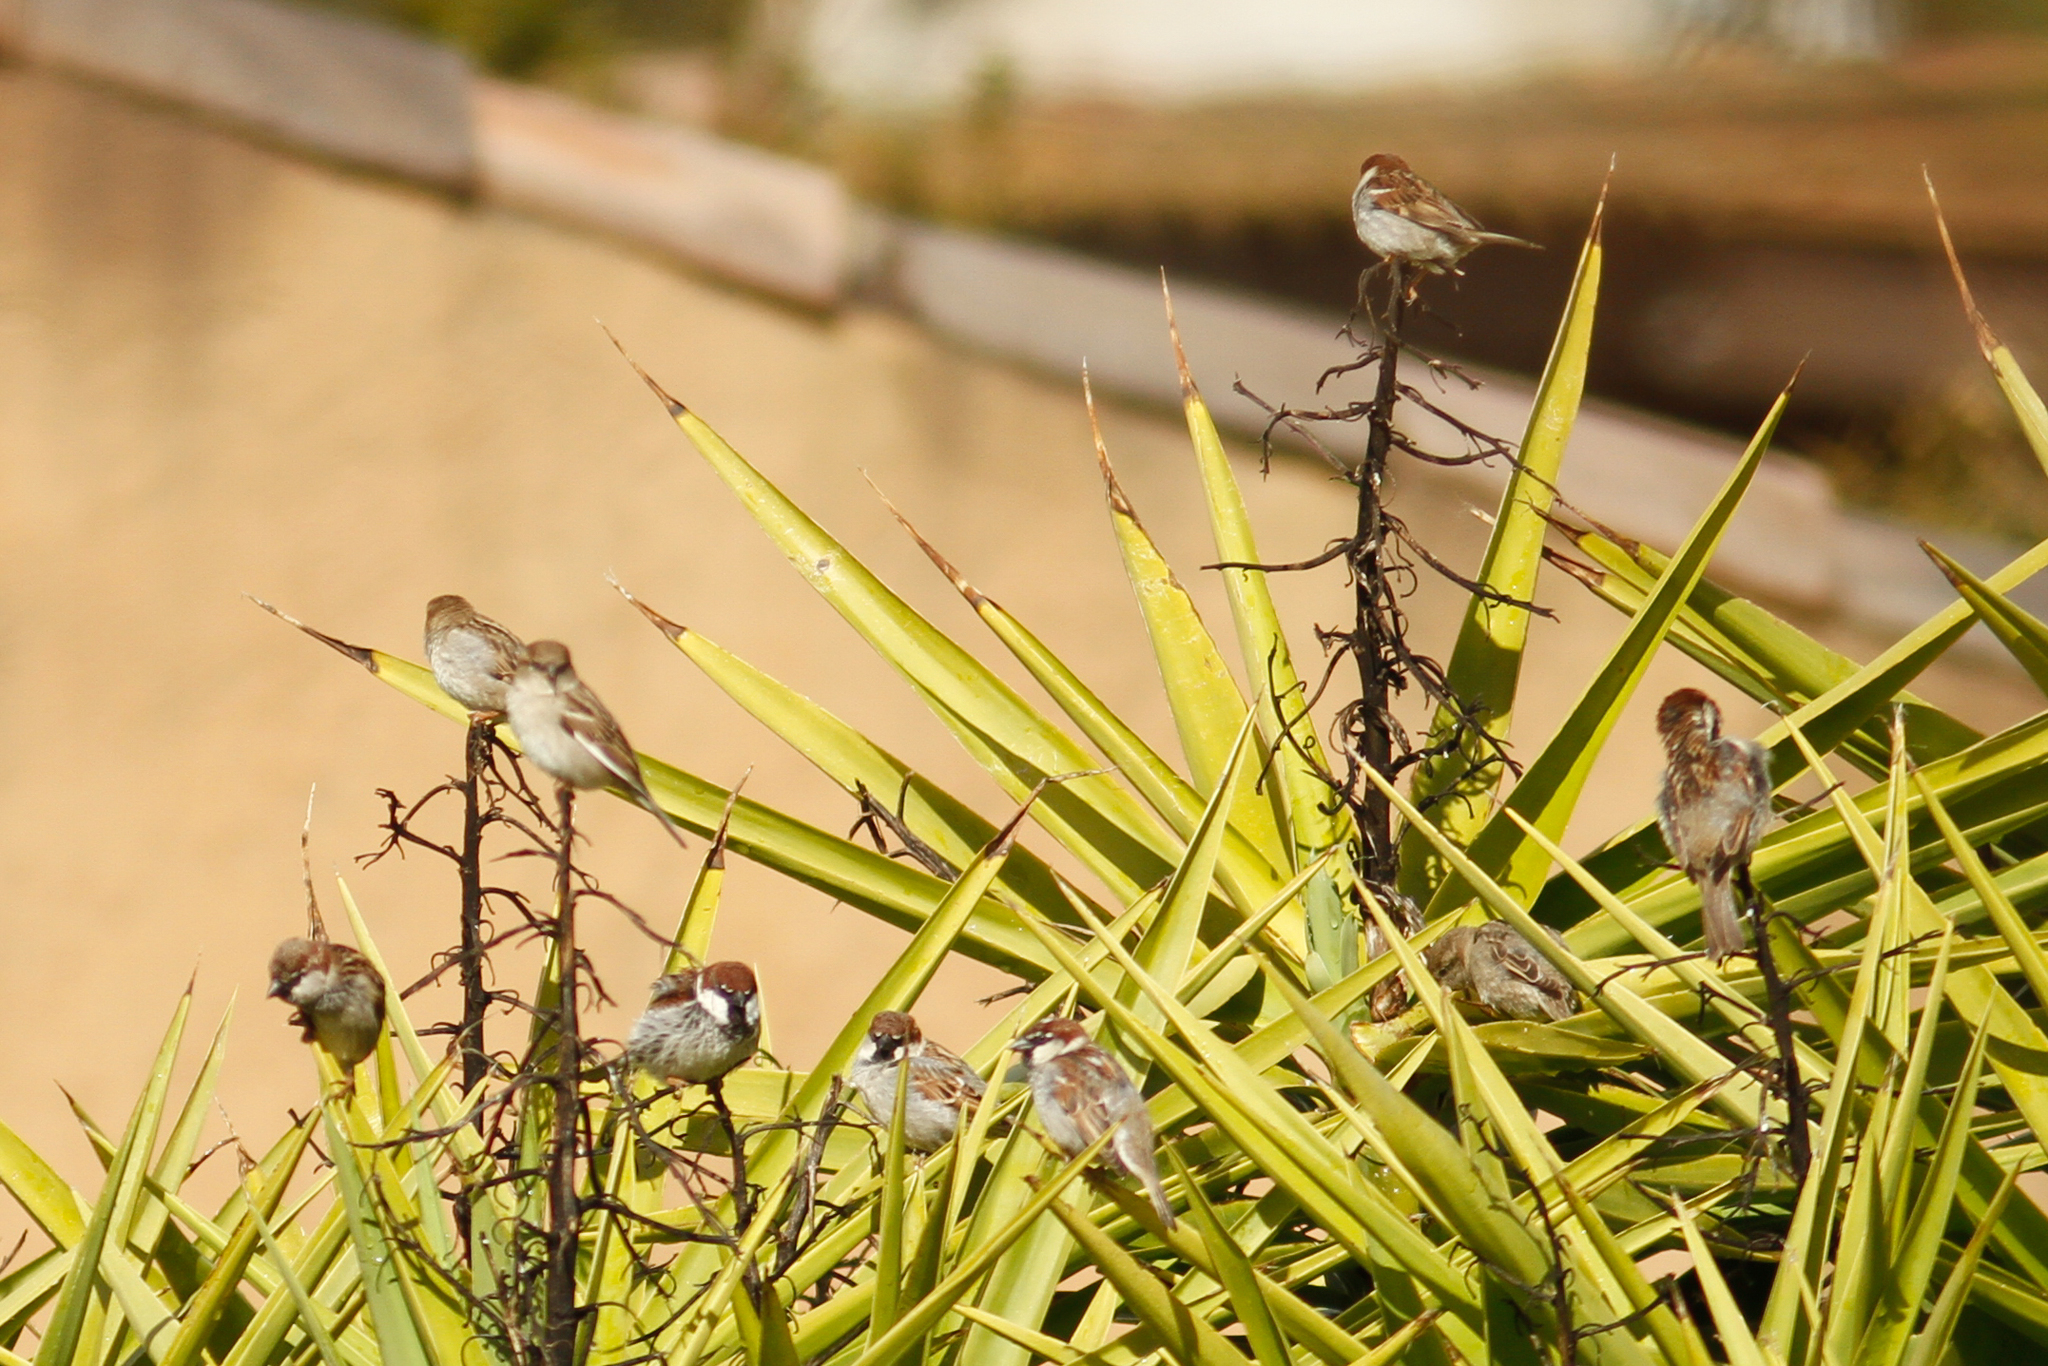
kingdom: Animalia
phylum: Chordata
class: Aves
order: Passeriformes
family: Passeridae
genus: Passer
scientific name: Passer italiae
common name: Italian sparrow
